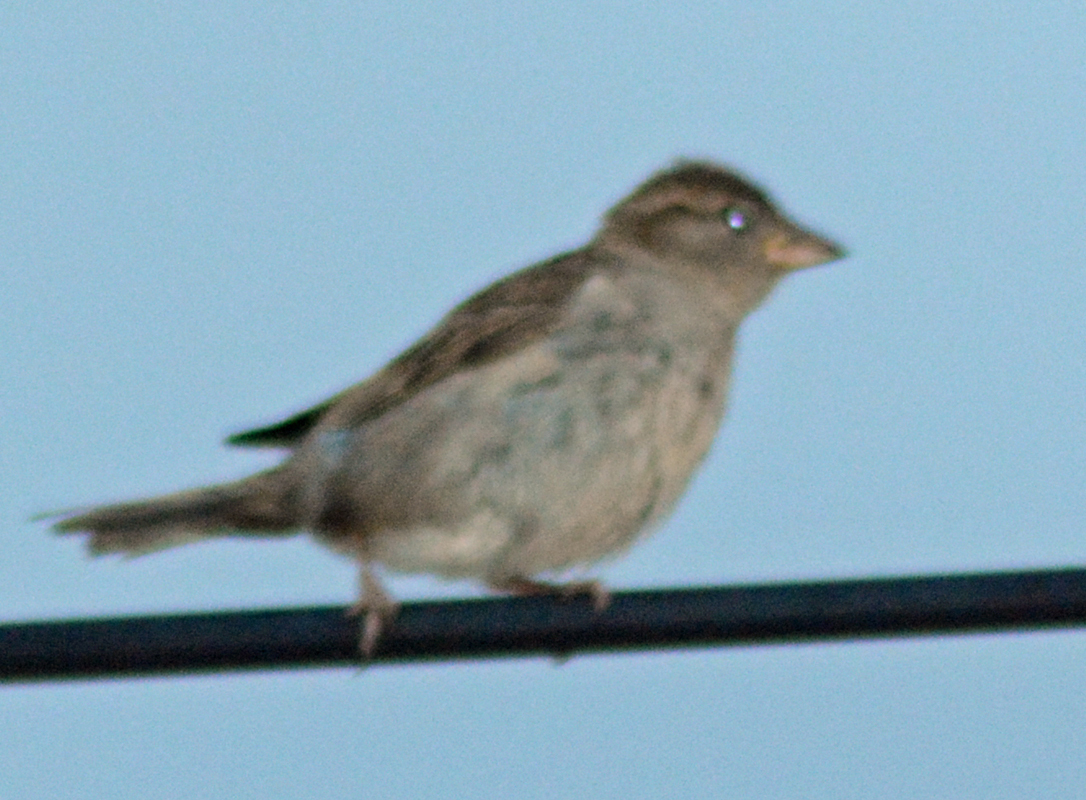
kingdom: Animalia
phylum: Chordata
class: Aves
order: Passeriformes
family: Passeridae
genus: Passer
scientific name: Passer domesticus
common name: House sparrow
